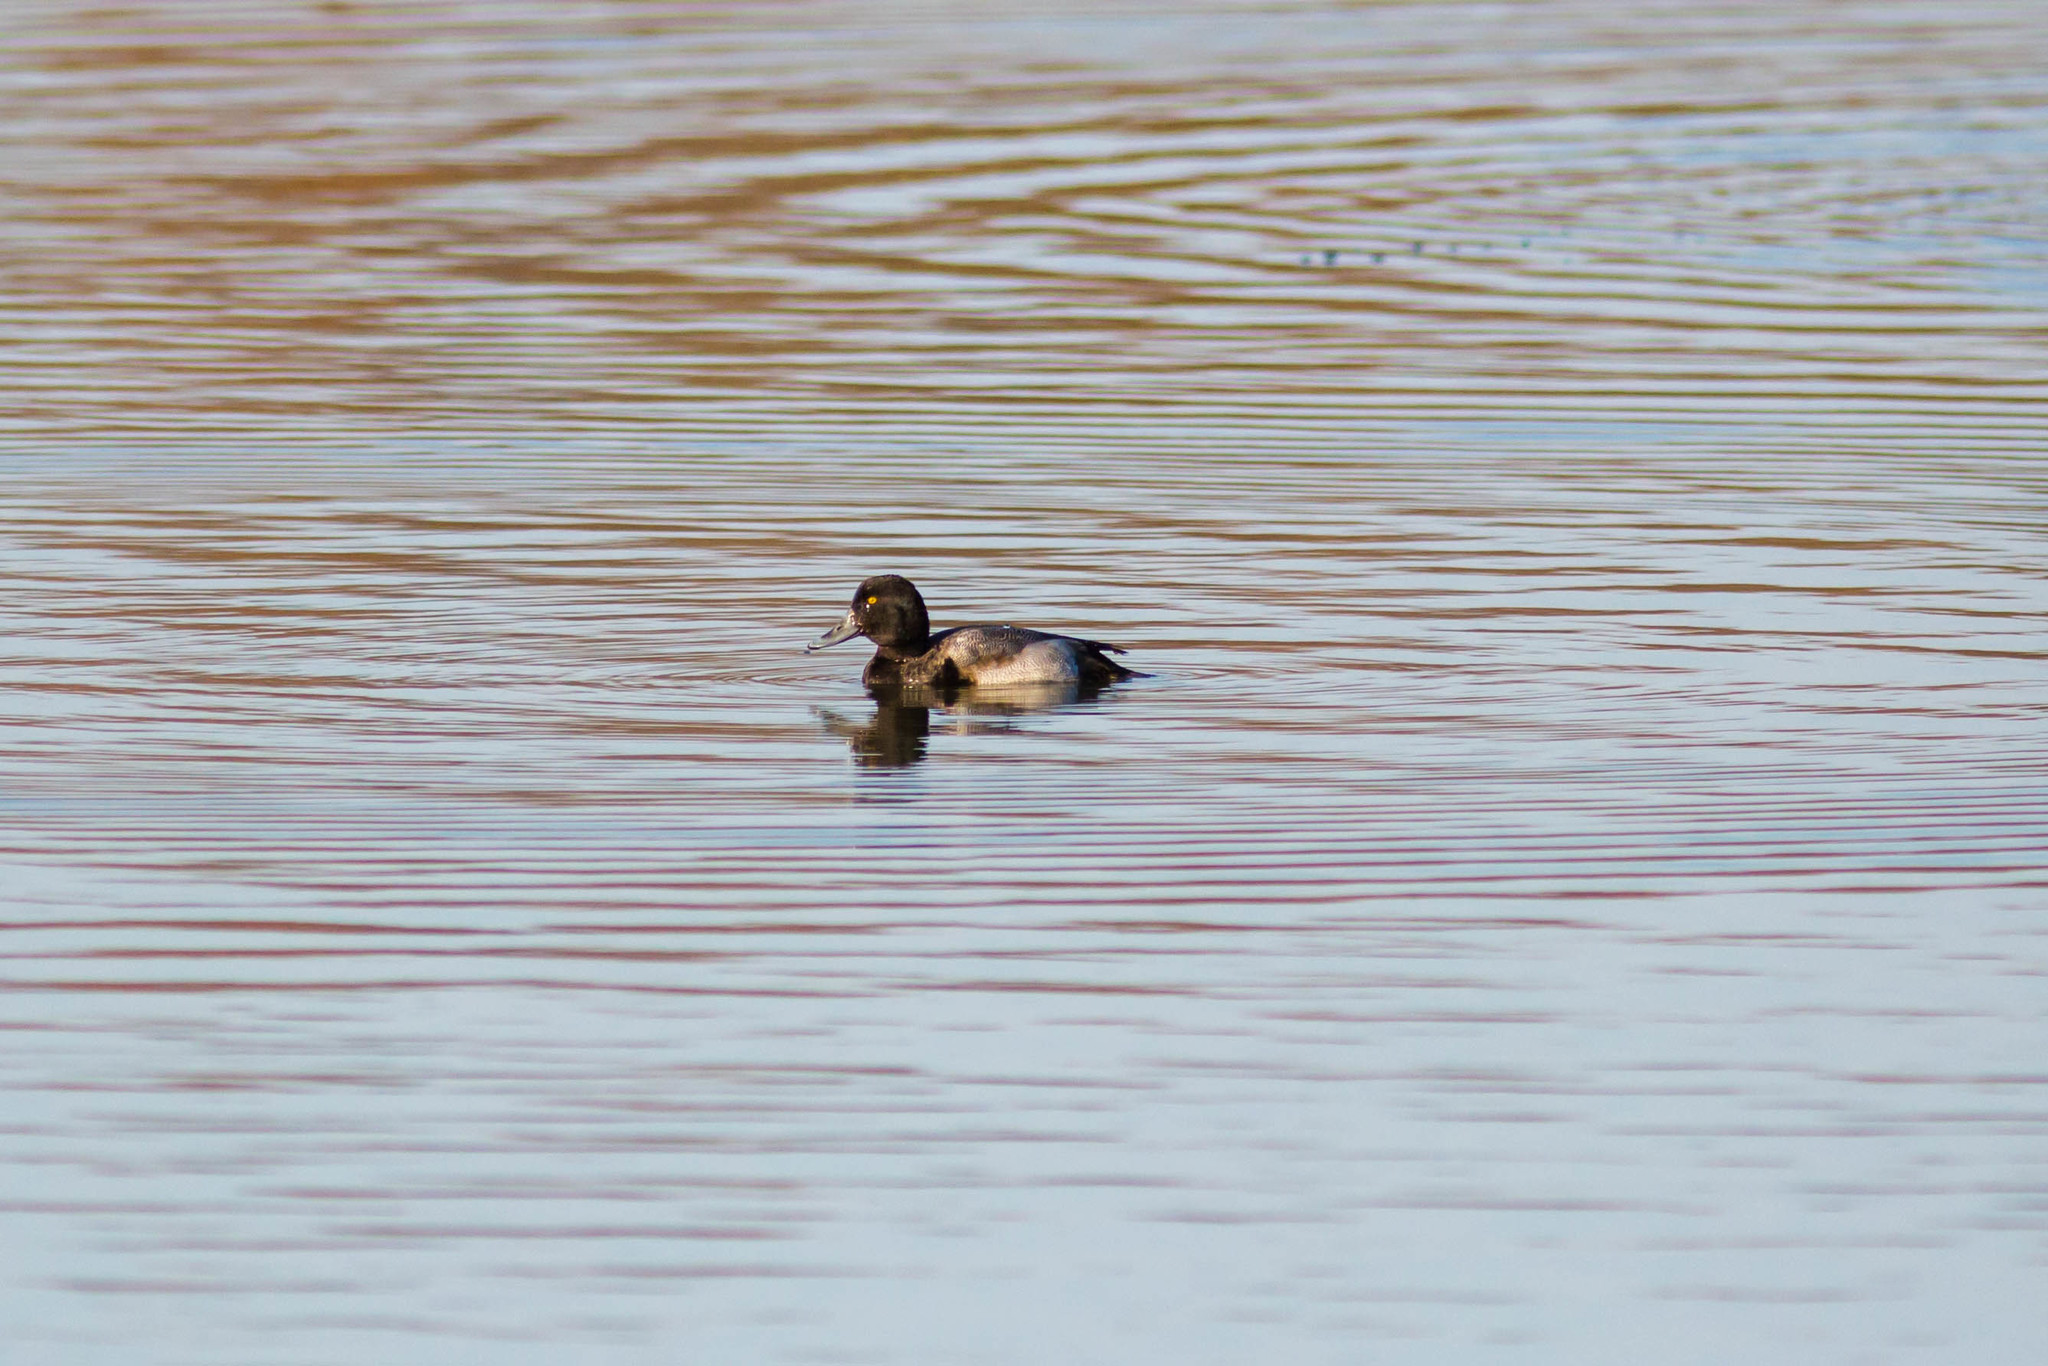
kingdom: Animalia
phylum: Chordata
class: Aves
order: Anseriformes
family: Anatidae
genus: Aythya
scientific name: Aythya marila
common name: Greater scaup
